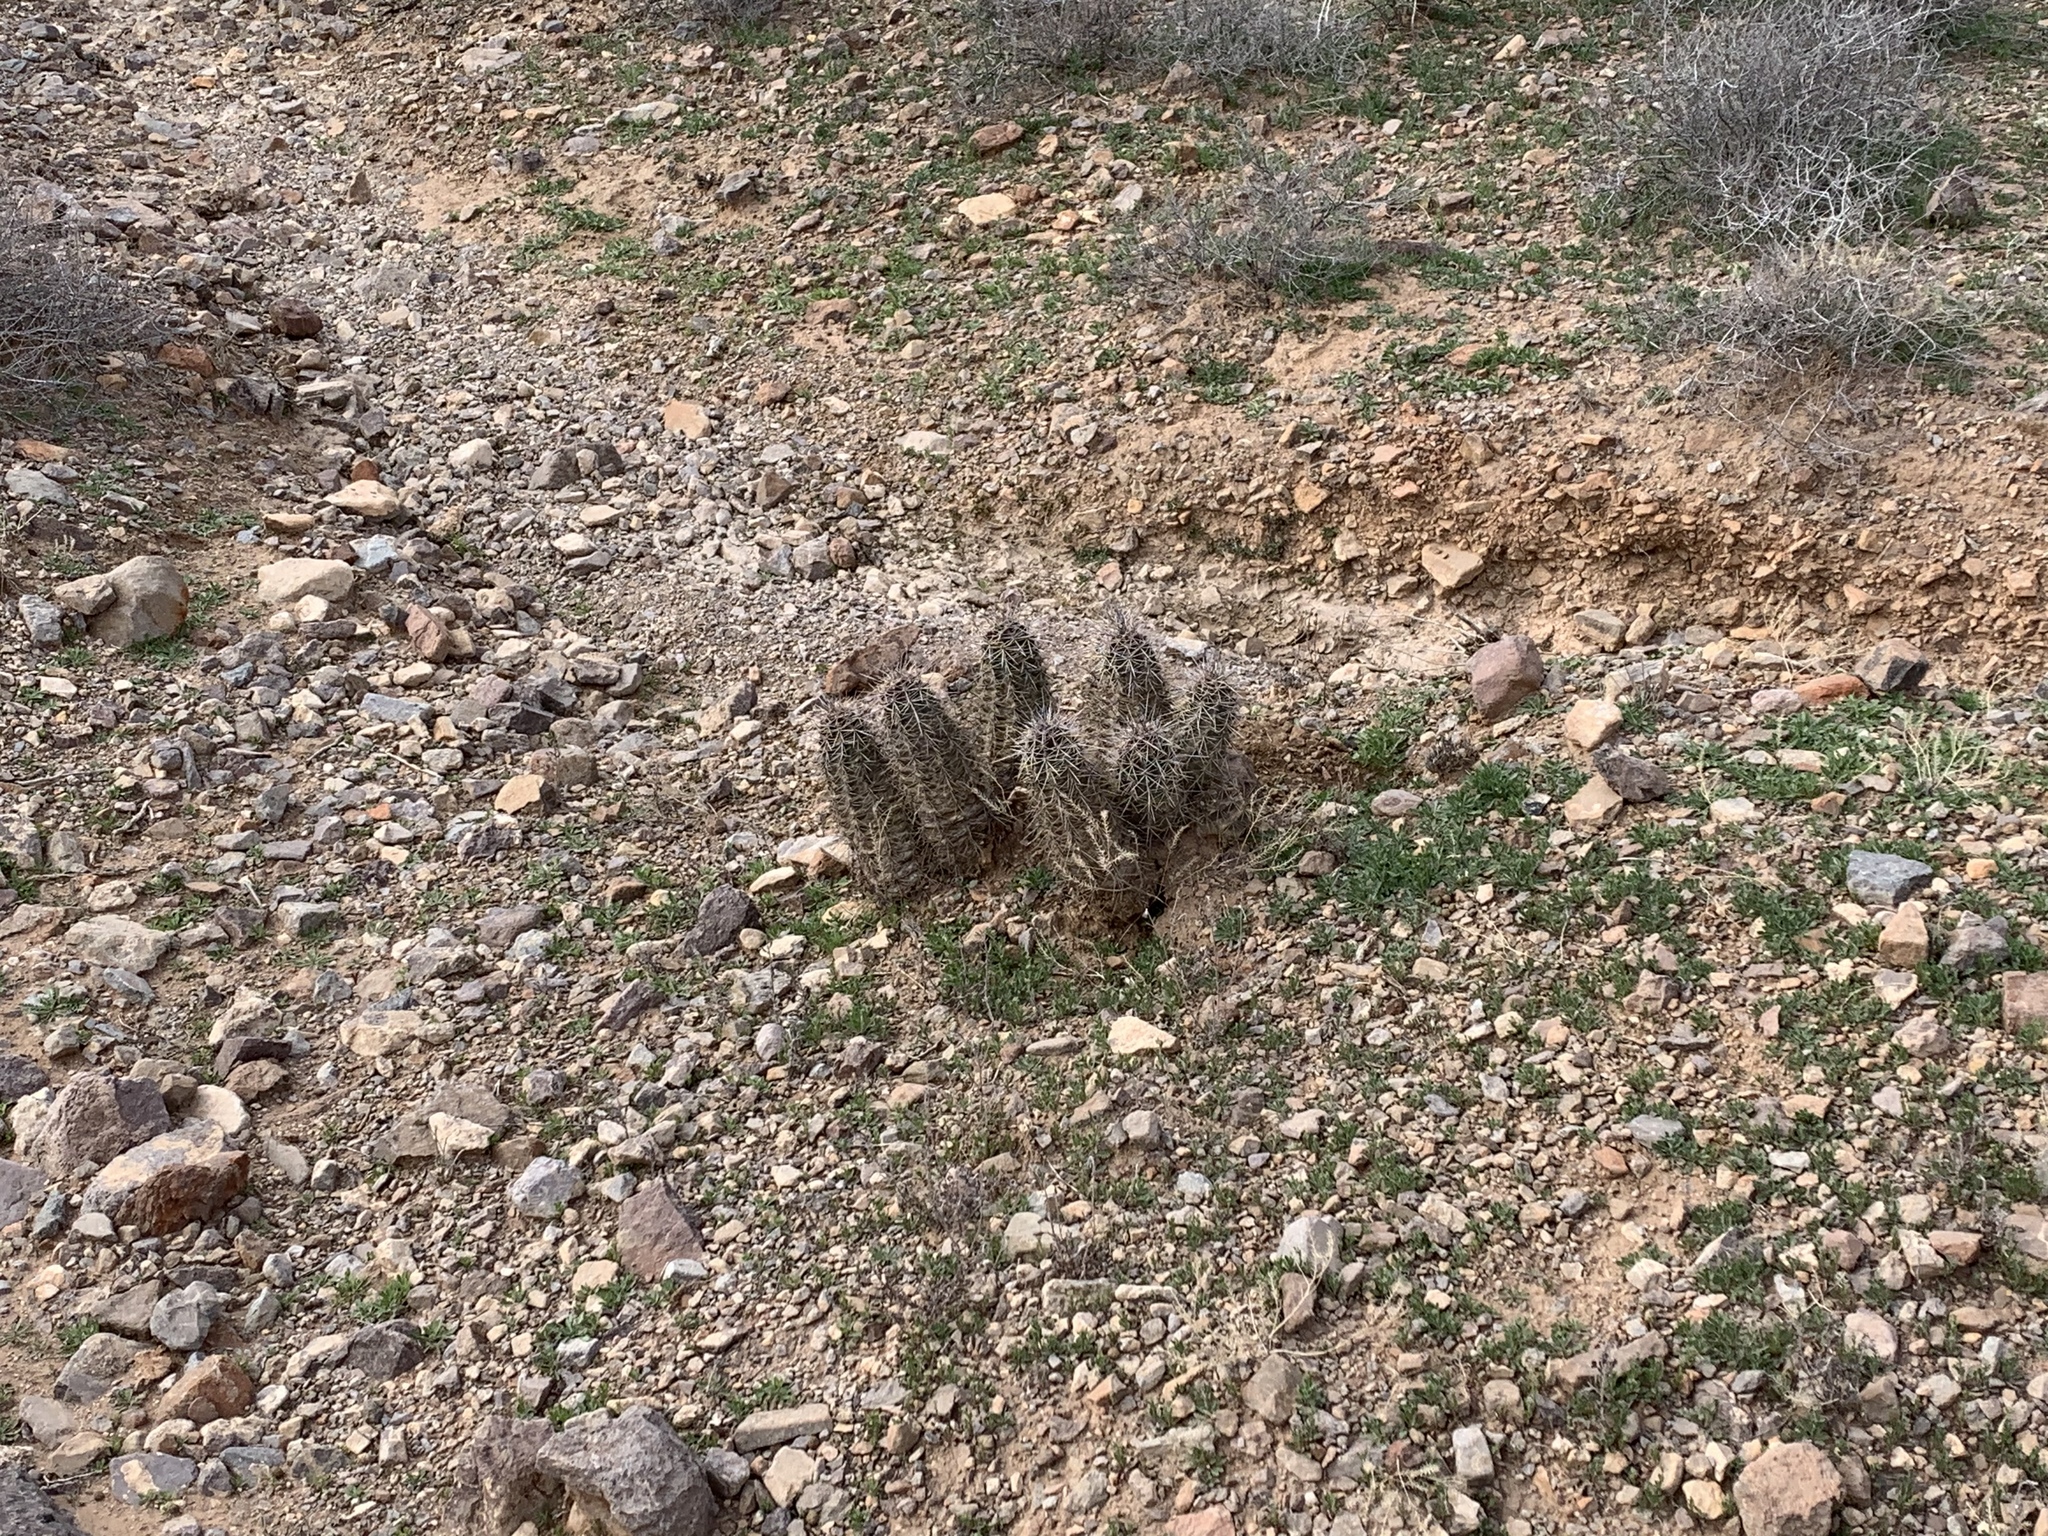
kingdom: Plantae
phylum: Tracheophyta
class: Magnoliopsida
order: Caryophyllales
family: Cactaceae
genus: Echinocereus
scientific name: Echinocereus coccineus
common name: Scarlet hedgehog cactus
